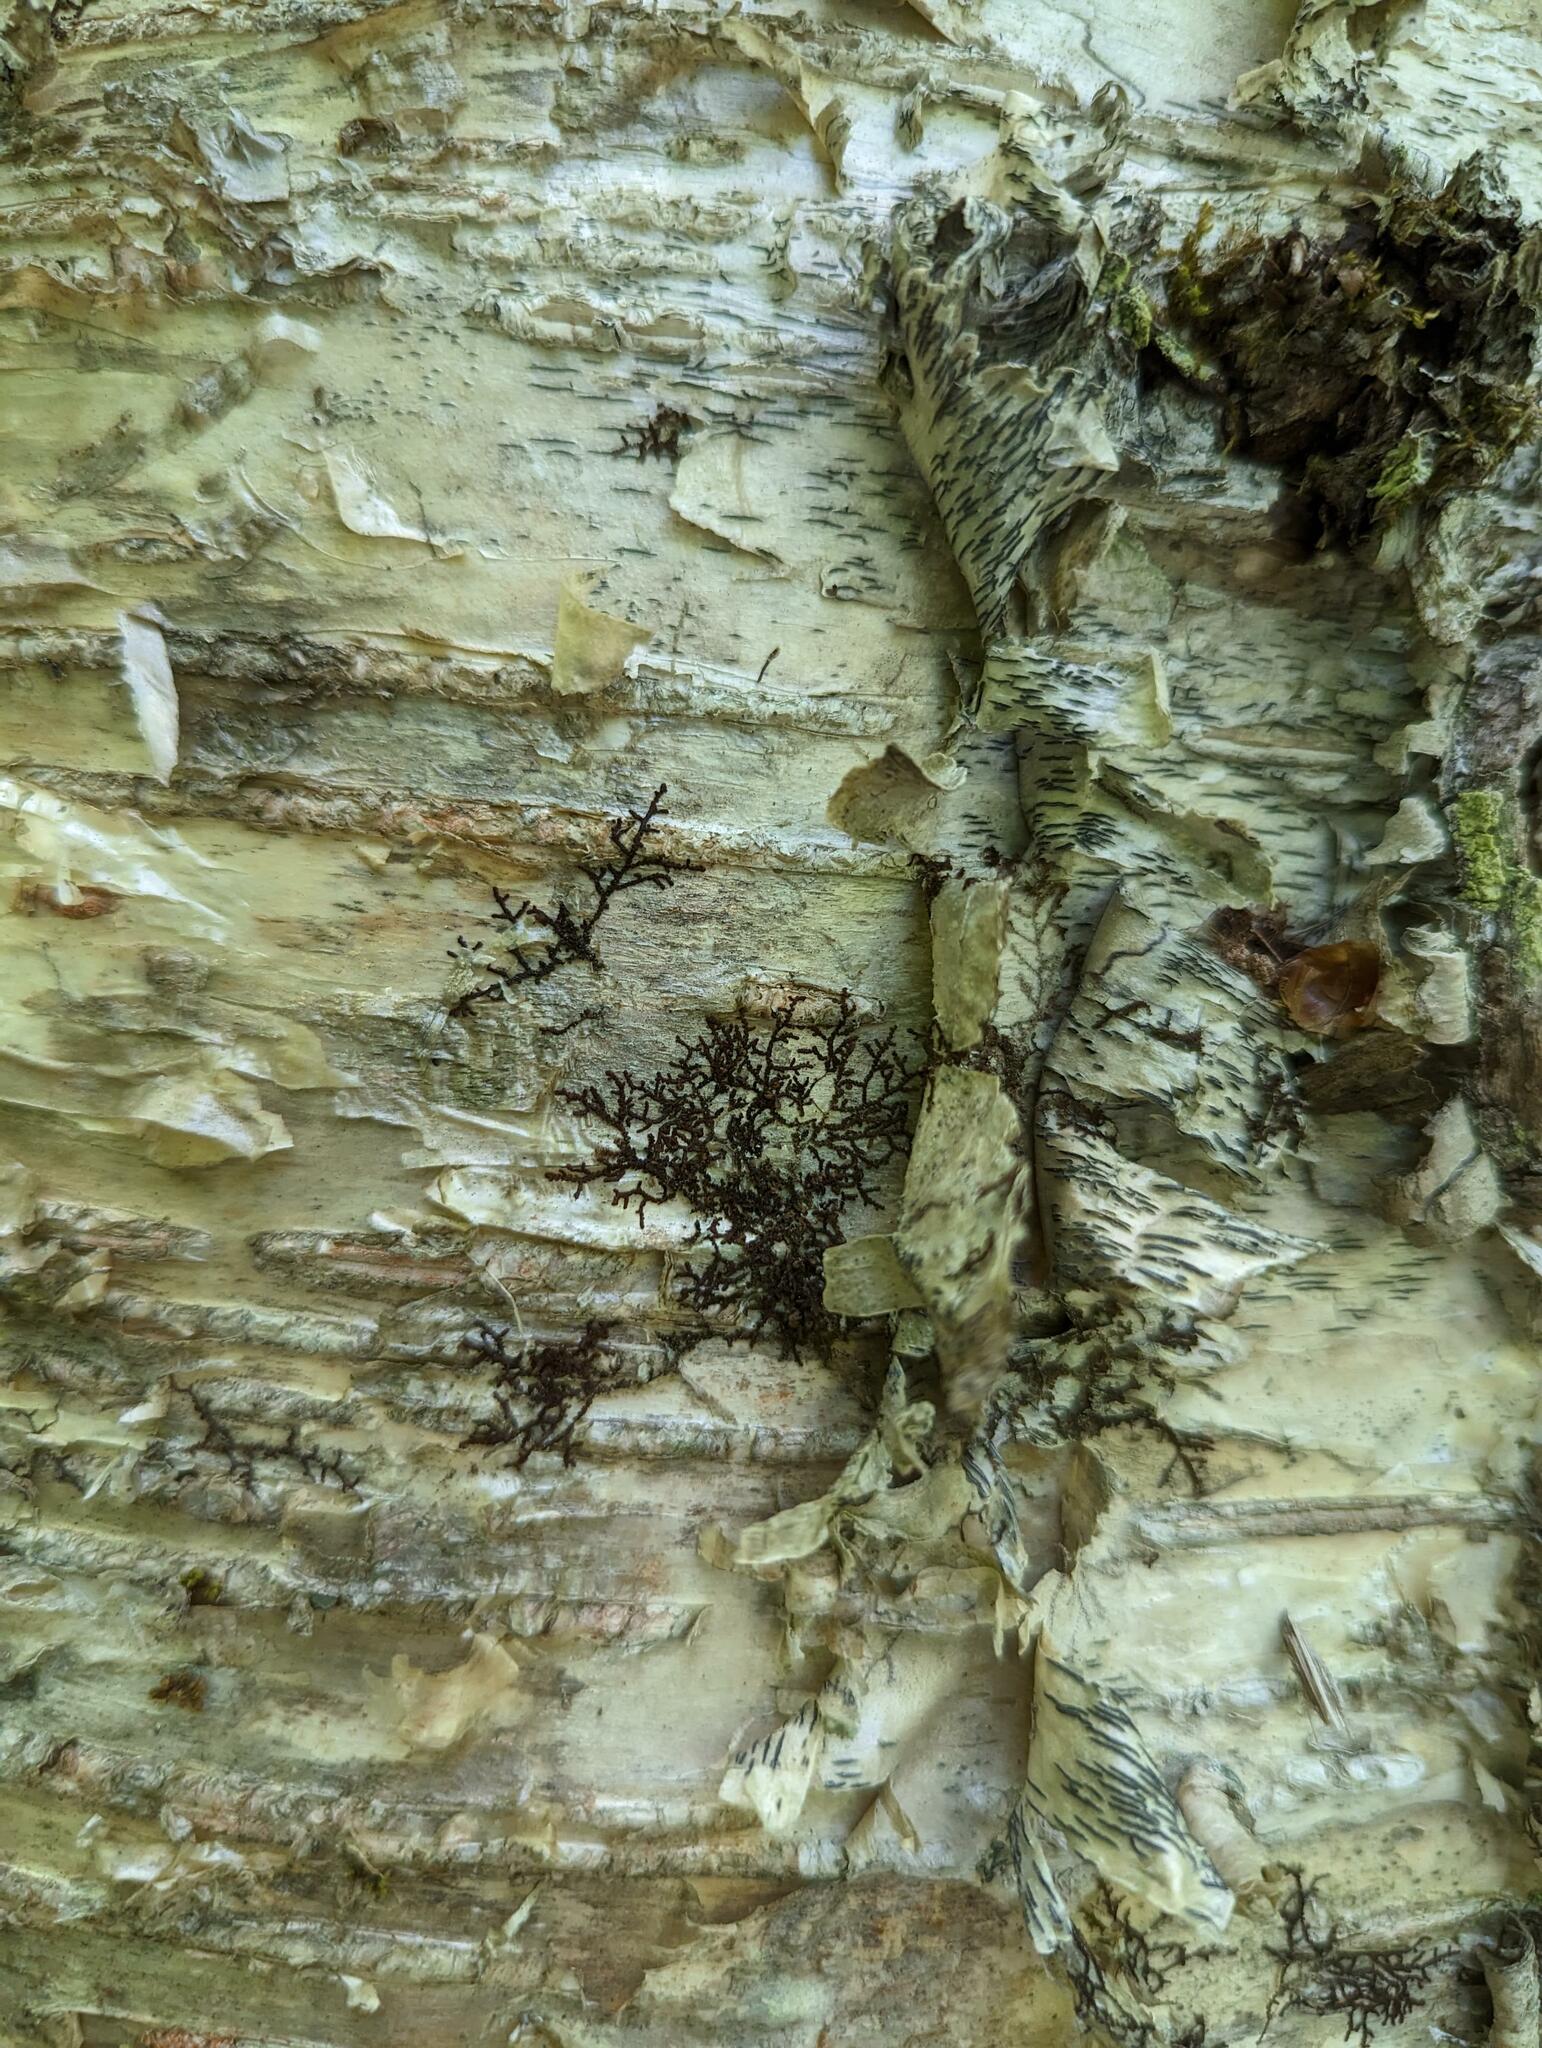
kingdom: Plantae
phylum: Marchantiophyta
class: Jungermanniopsida
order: Porellales
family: Frullaniaceae
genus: Frullania
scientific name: Frullania eboracensis
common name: New york scalewort
